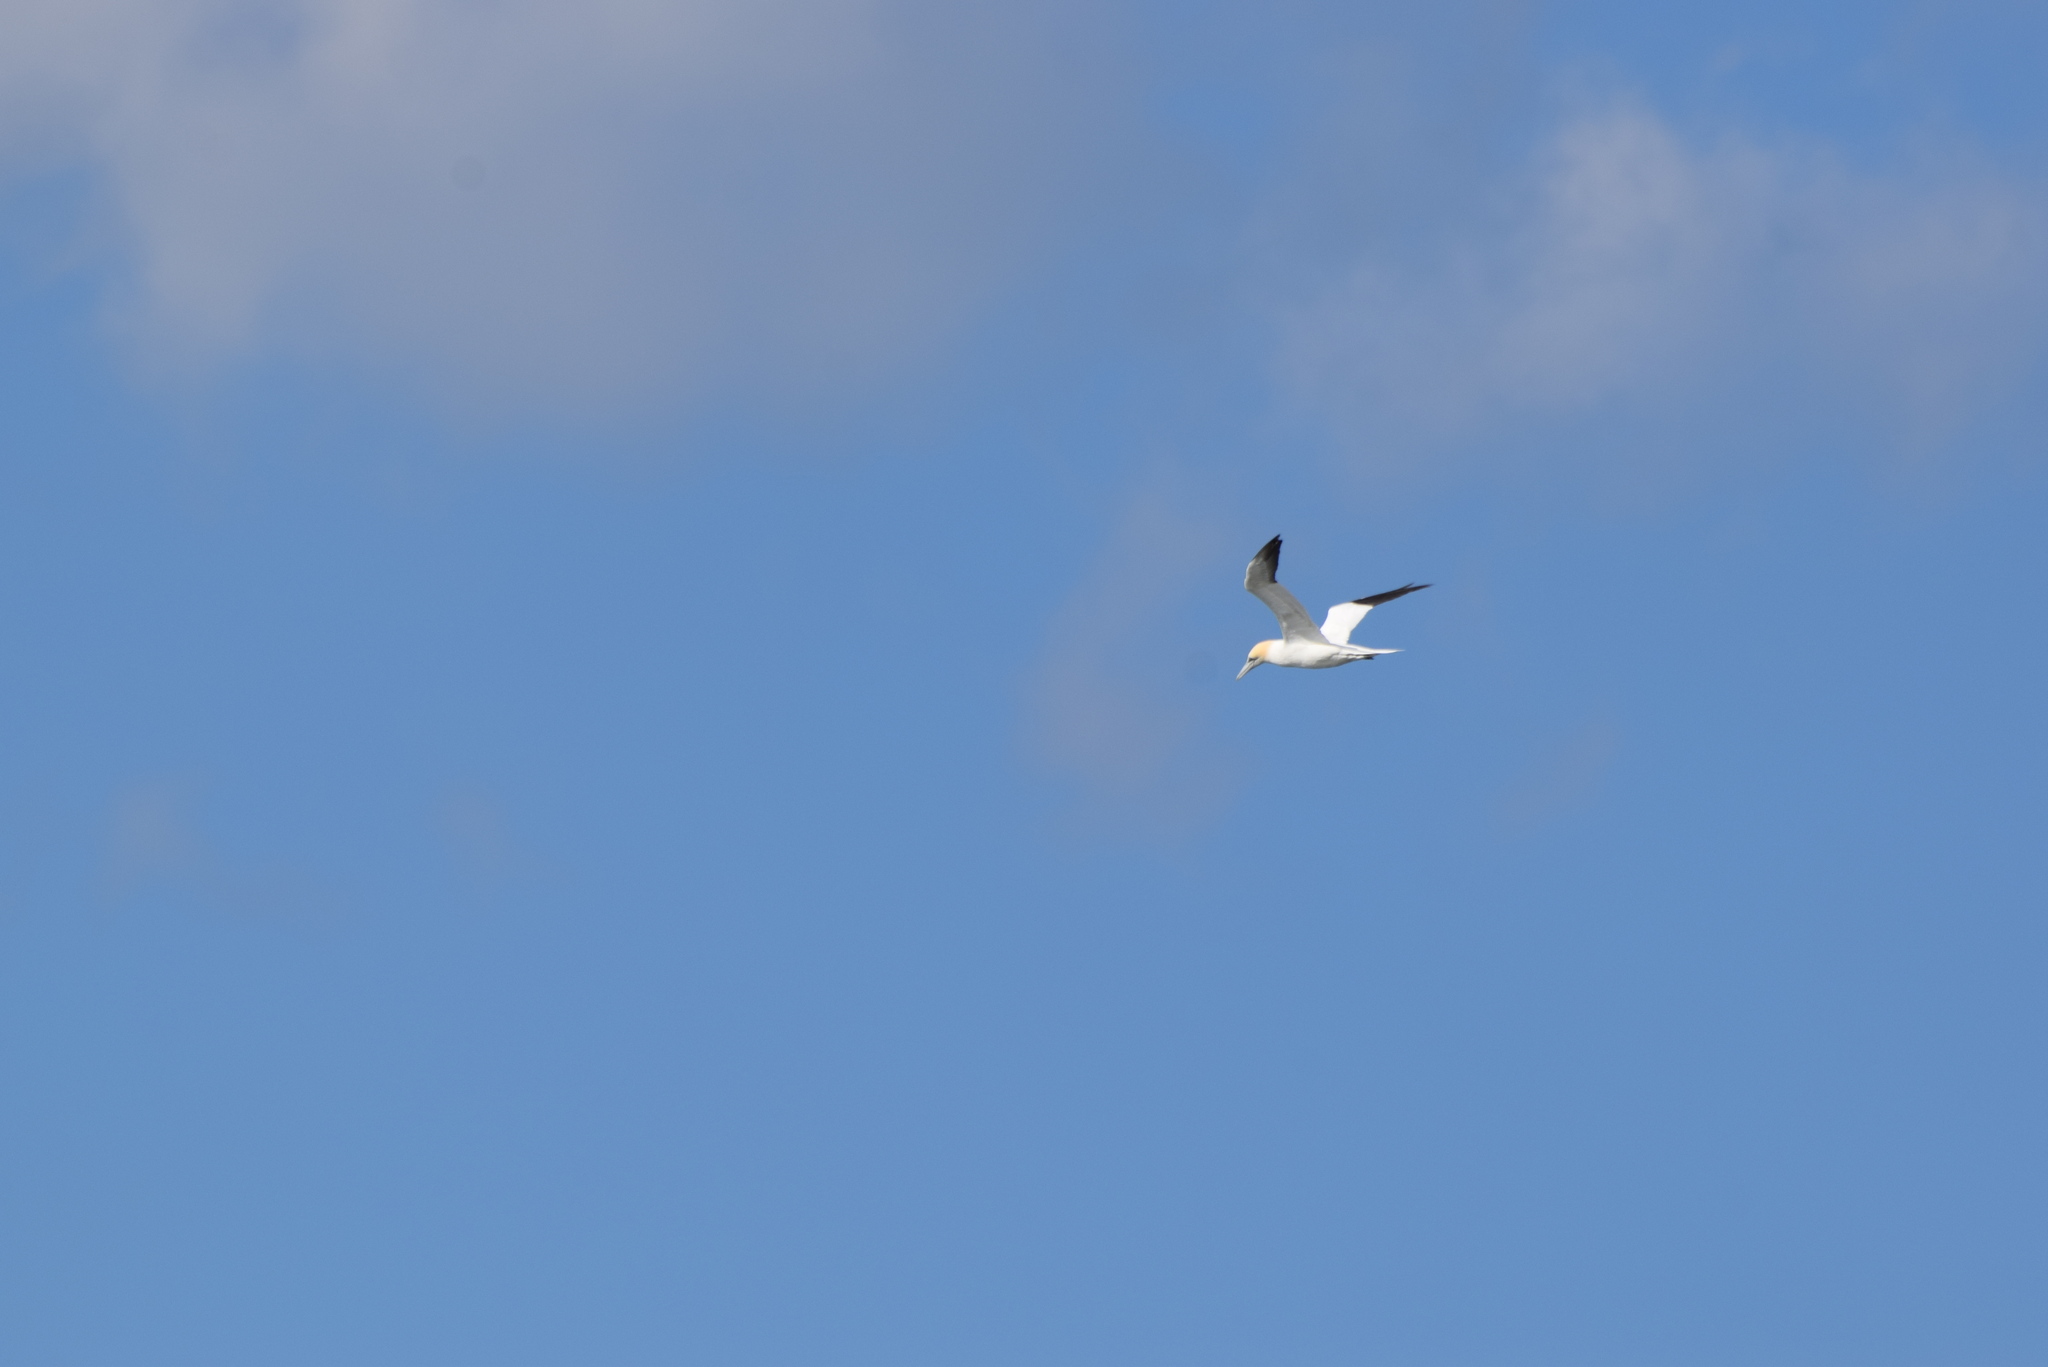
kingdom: Animalia
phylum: Chordata
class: Aves
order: Suliformes
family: Sulidae
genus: Morus
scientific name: Morus bassanus
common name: Northern gannet
